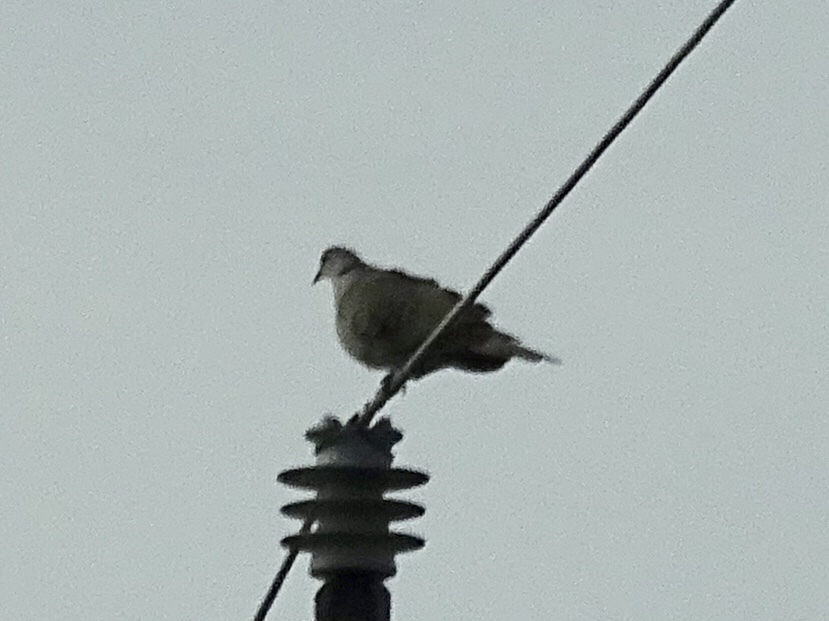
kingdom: Animalia
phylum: Chordata
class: Aves
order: Columbiformes
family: Columbidae
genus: Streptopelia
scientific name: Streptopelia decaocto
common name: Eurasian collared dove
